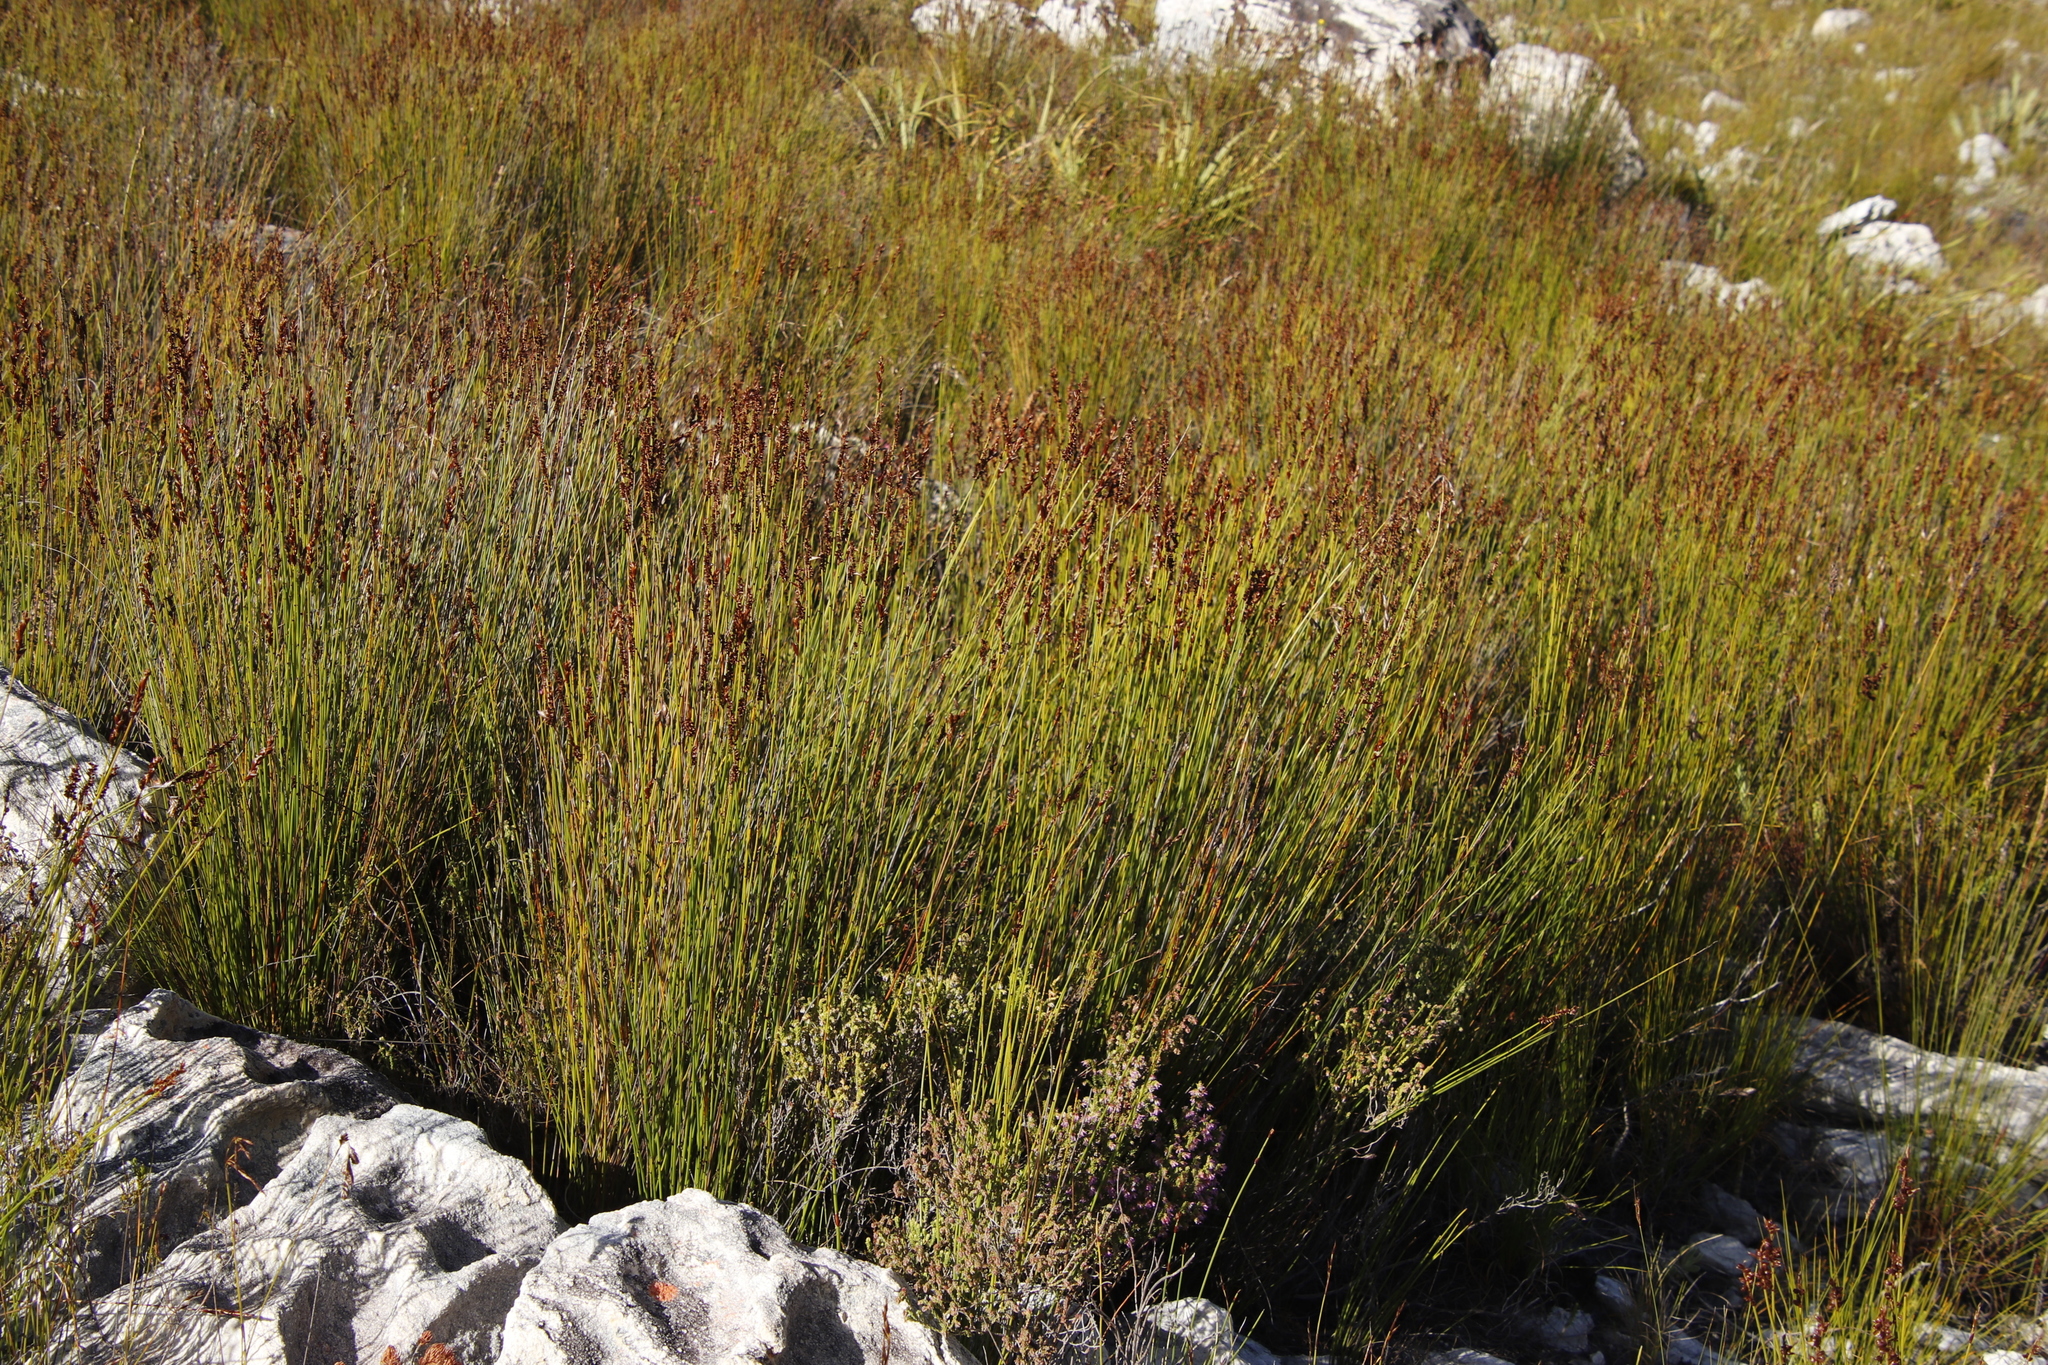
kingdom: Plantae
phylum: Tracheophyta
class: Liliopsida
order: Poales
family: Restionaceae
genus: Elegia
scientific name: Elegia hookeriana
